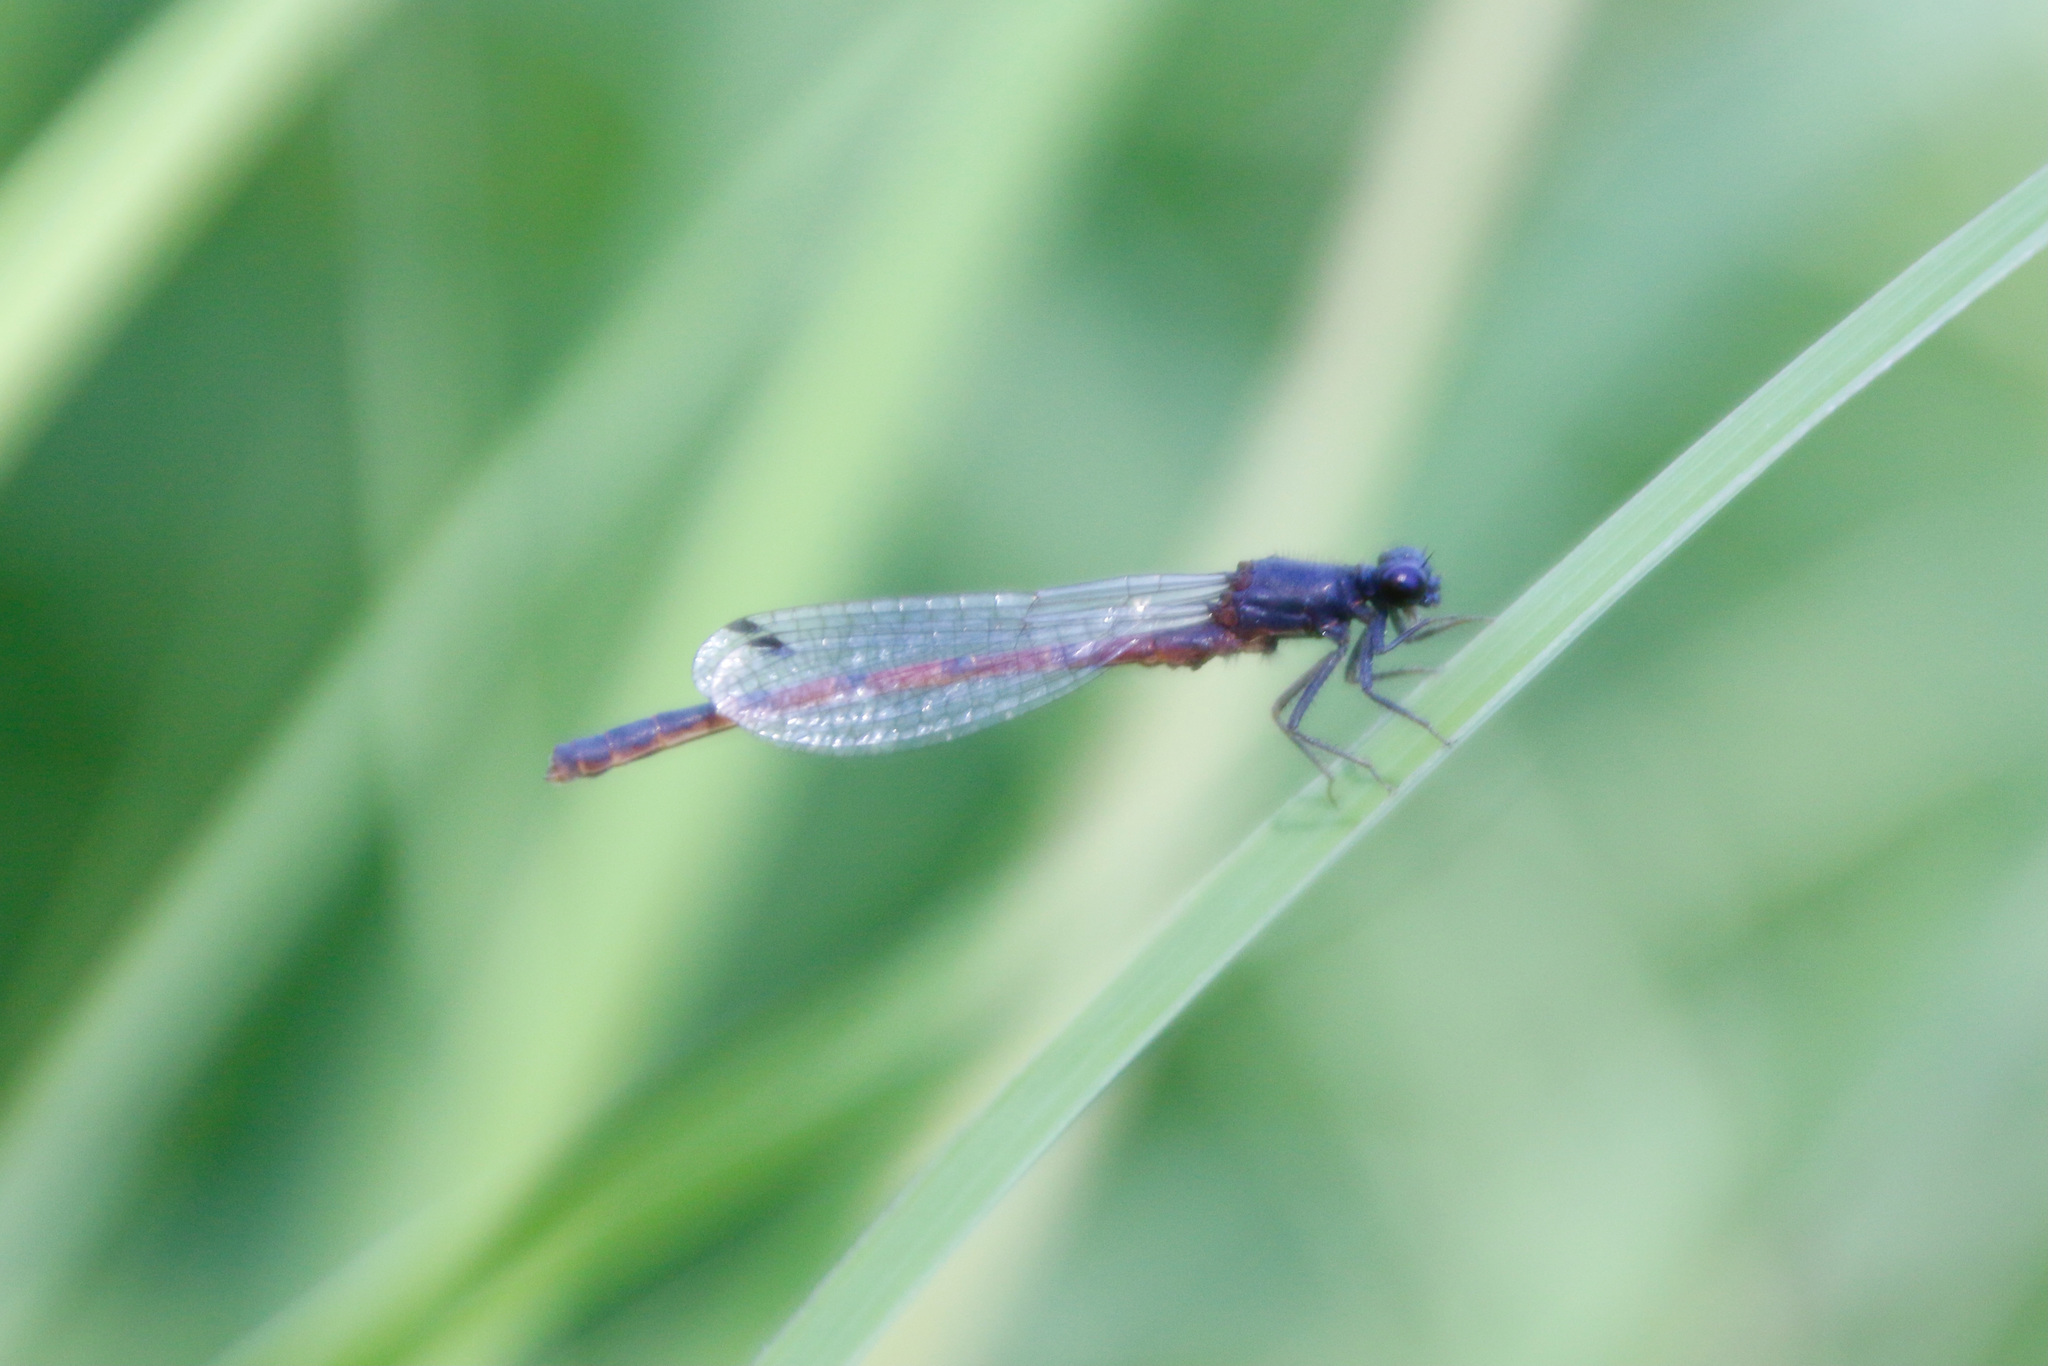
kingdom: Animalia
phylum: Arthropoda
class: Insecta
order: Odonata
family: Coenagrionidae
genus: Amphiagrion
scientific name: Amphiagrion abbreviatum
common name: Western red damsel
